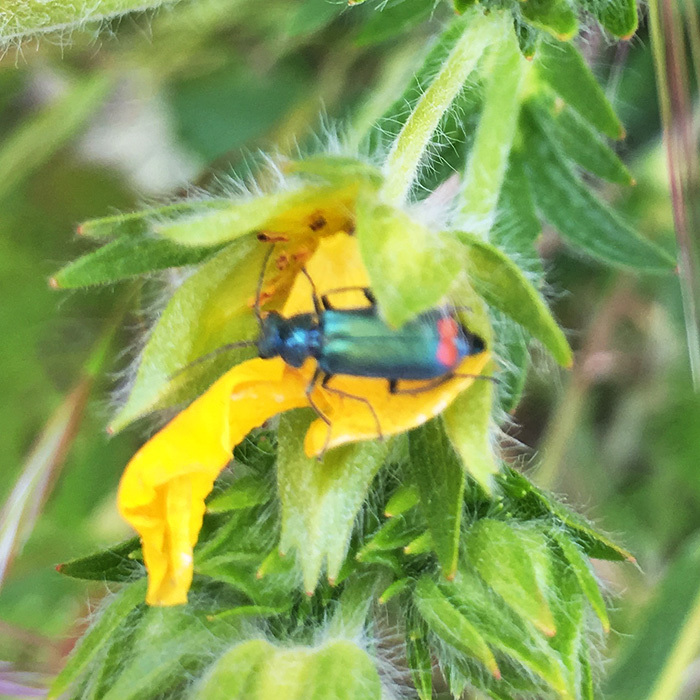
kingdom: Animalia
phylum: Arthropoda
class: Insecta
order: Coleoptera
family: Melyridae
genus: Malachius
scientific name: Malachius bipustulatus
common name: Malachite beetle
